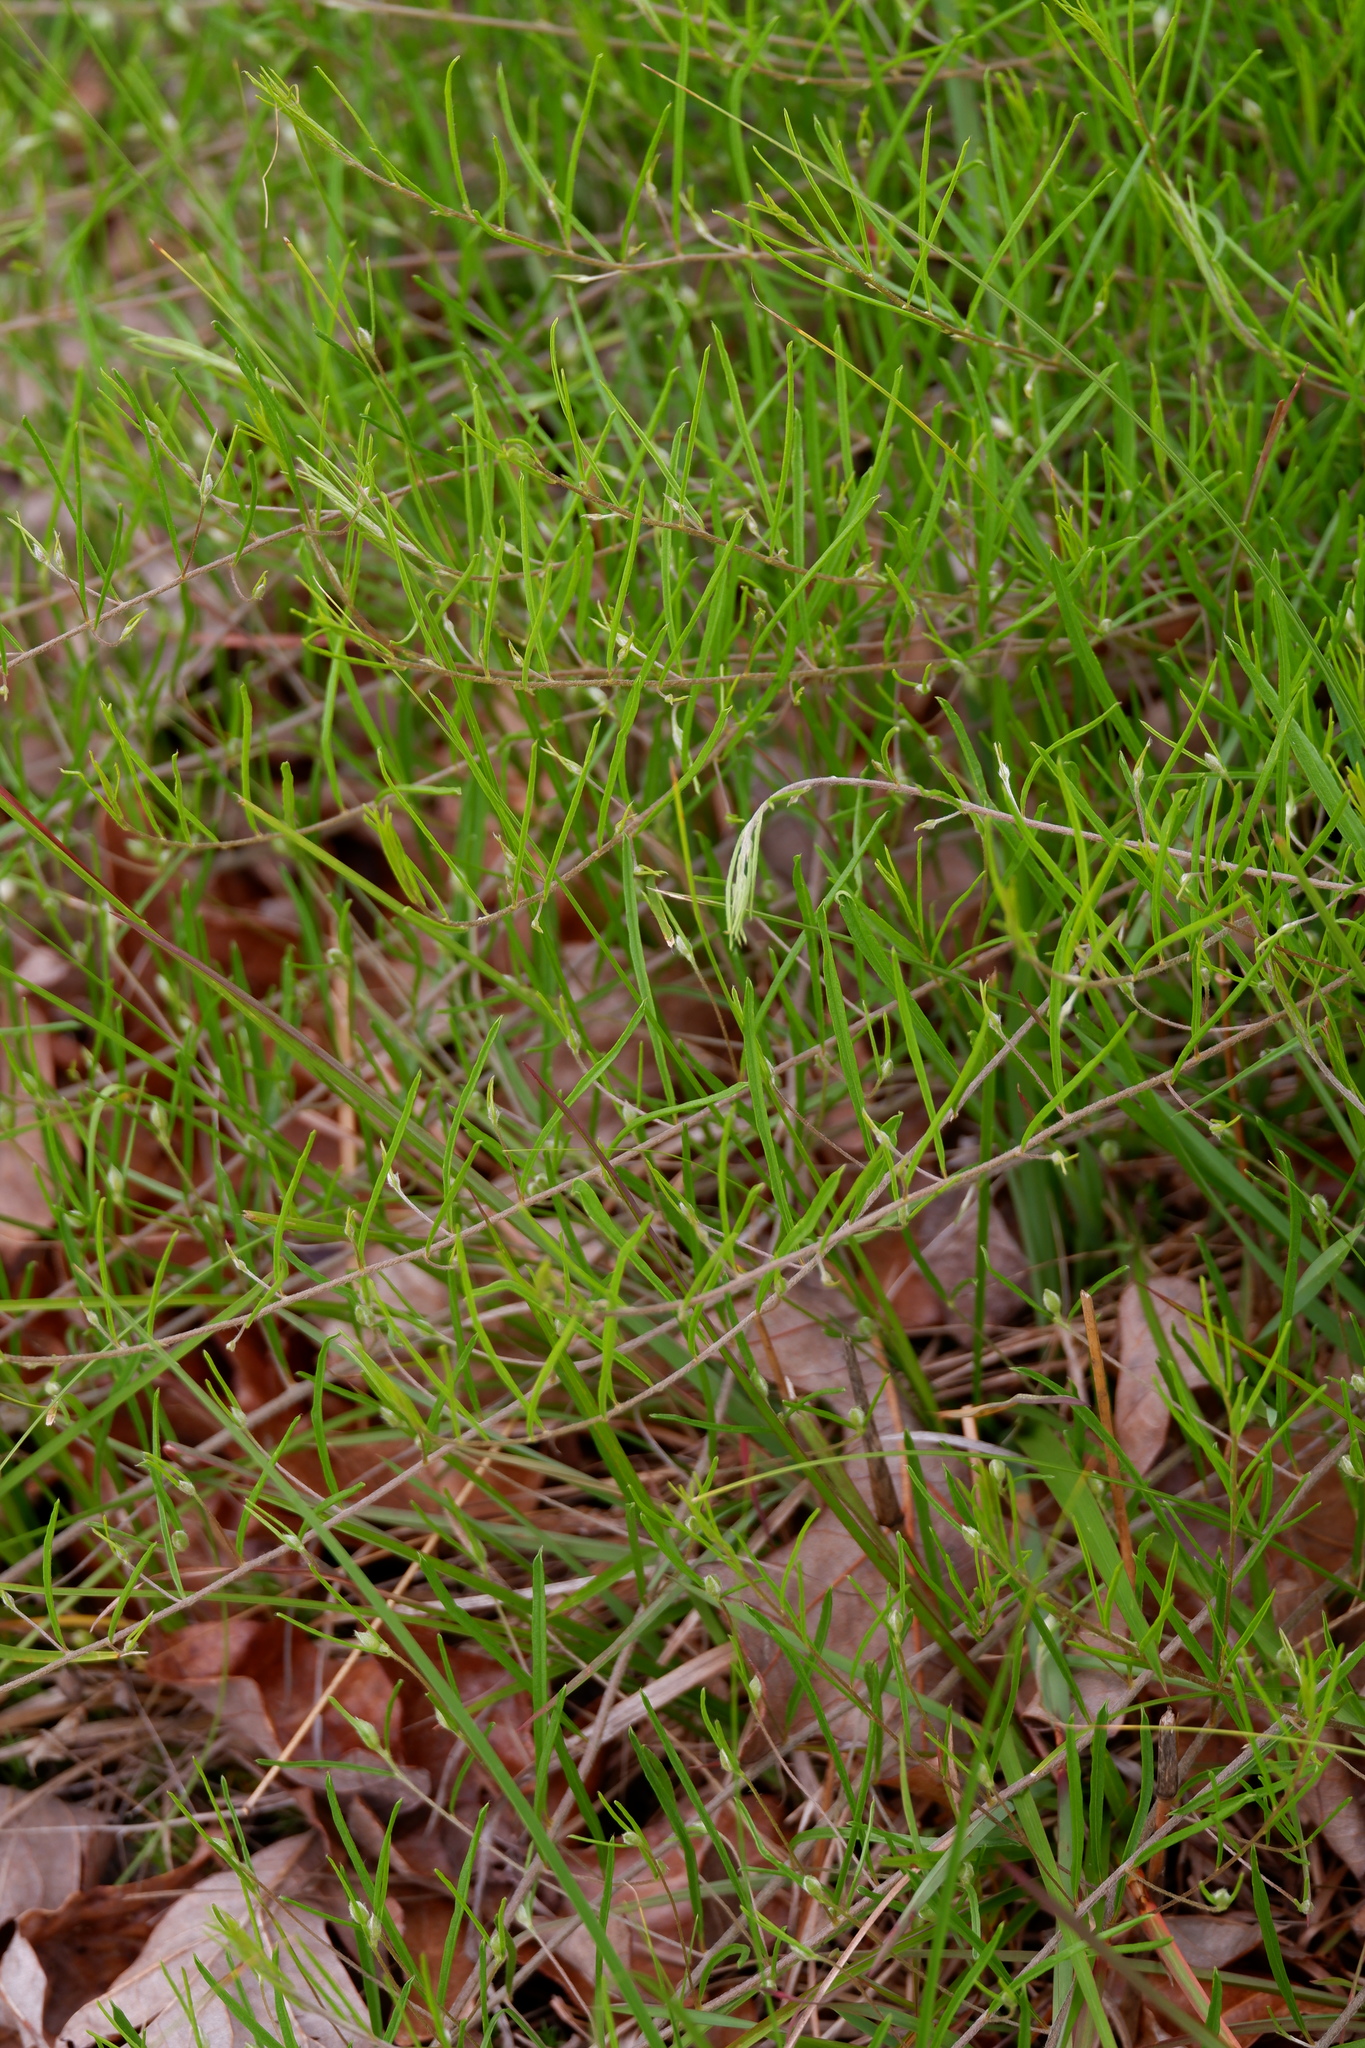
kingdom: Plantae
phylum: Tracheophyta
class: Magnoliopsida
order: Solanales
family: Convolvulaceae
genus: Stylisma
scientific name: Stylisma pickeringii
